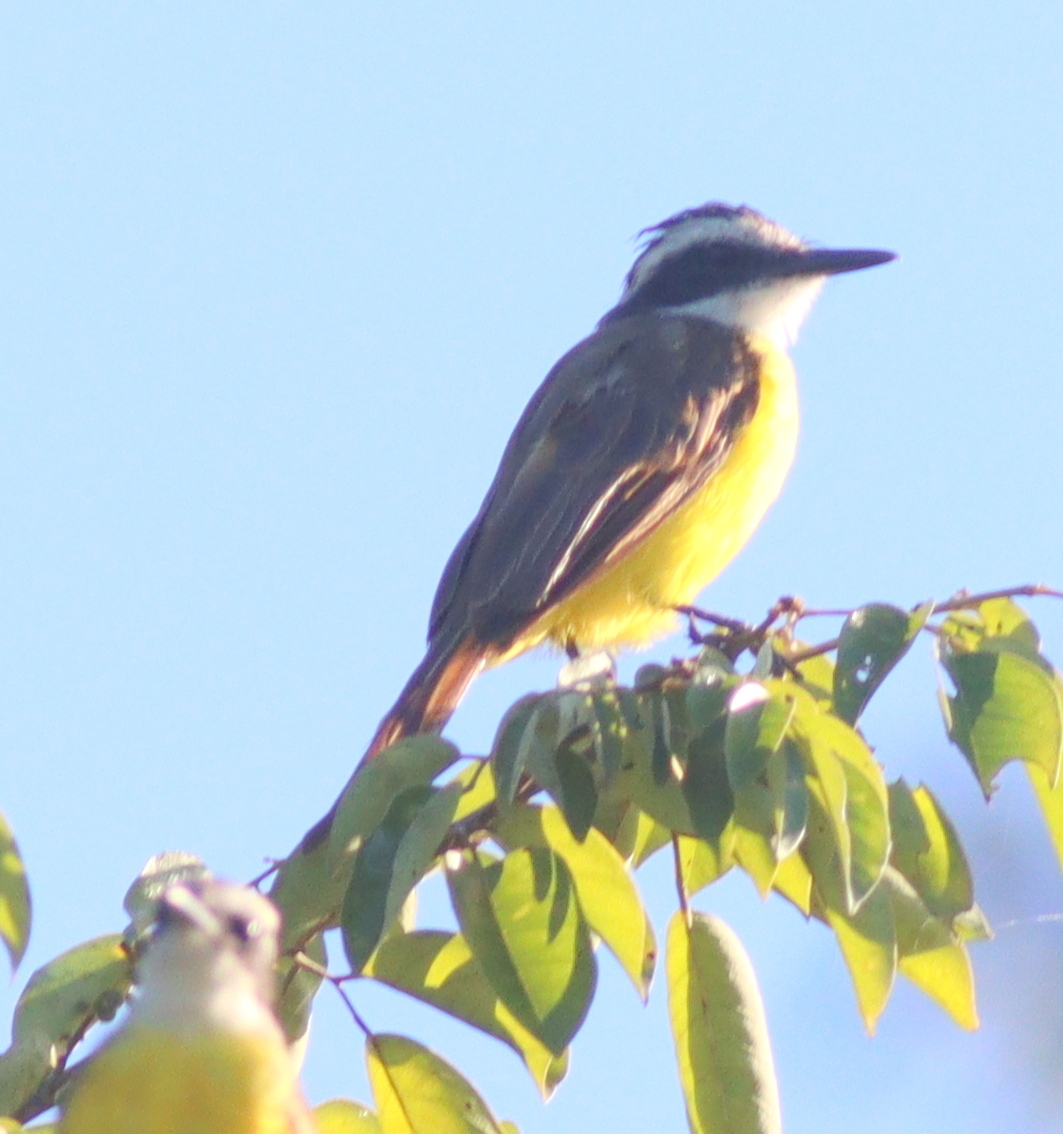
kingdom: Animalia
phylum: Chordata
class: Aves
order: Passeriformes
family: Tyrannidae
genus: Pitangus
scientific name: Pitangus sulphuratus
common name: Great kiskadee
